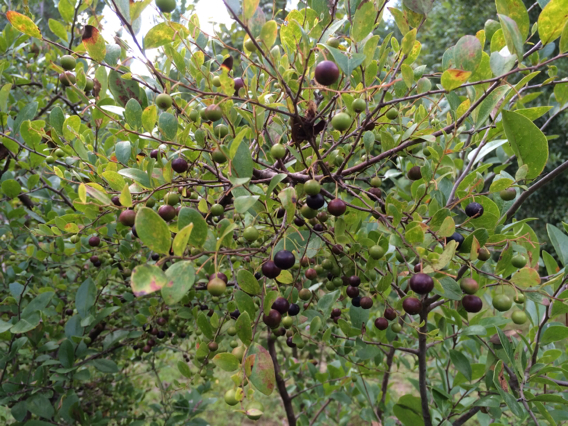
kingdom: Plantae
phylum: Tracheophyta
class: Magnoliopsida
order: Ericales
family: Ericaceae
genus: Vaccinium
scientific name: Vaccinium arboreum
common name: Farkleberry
